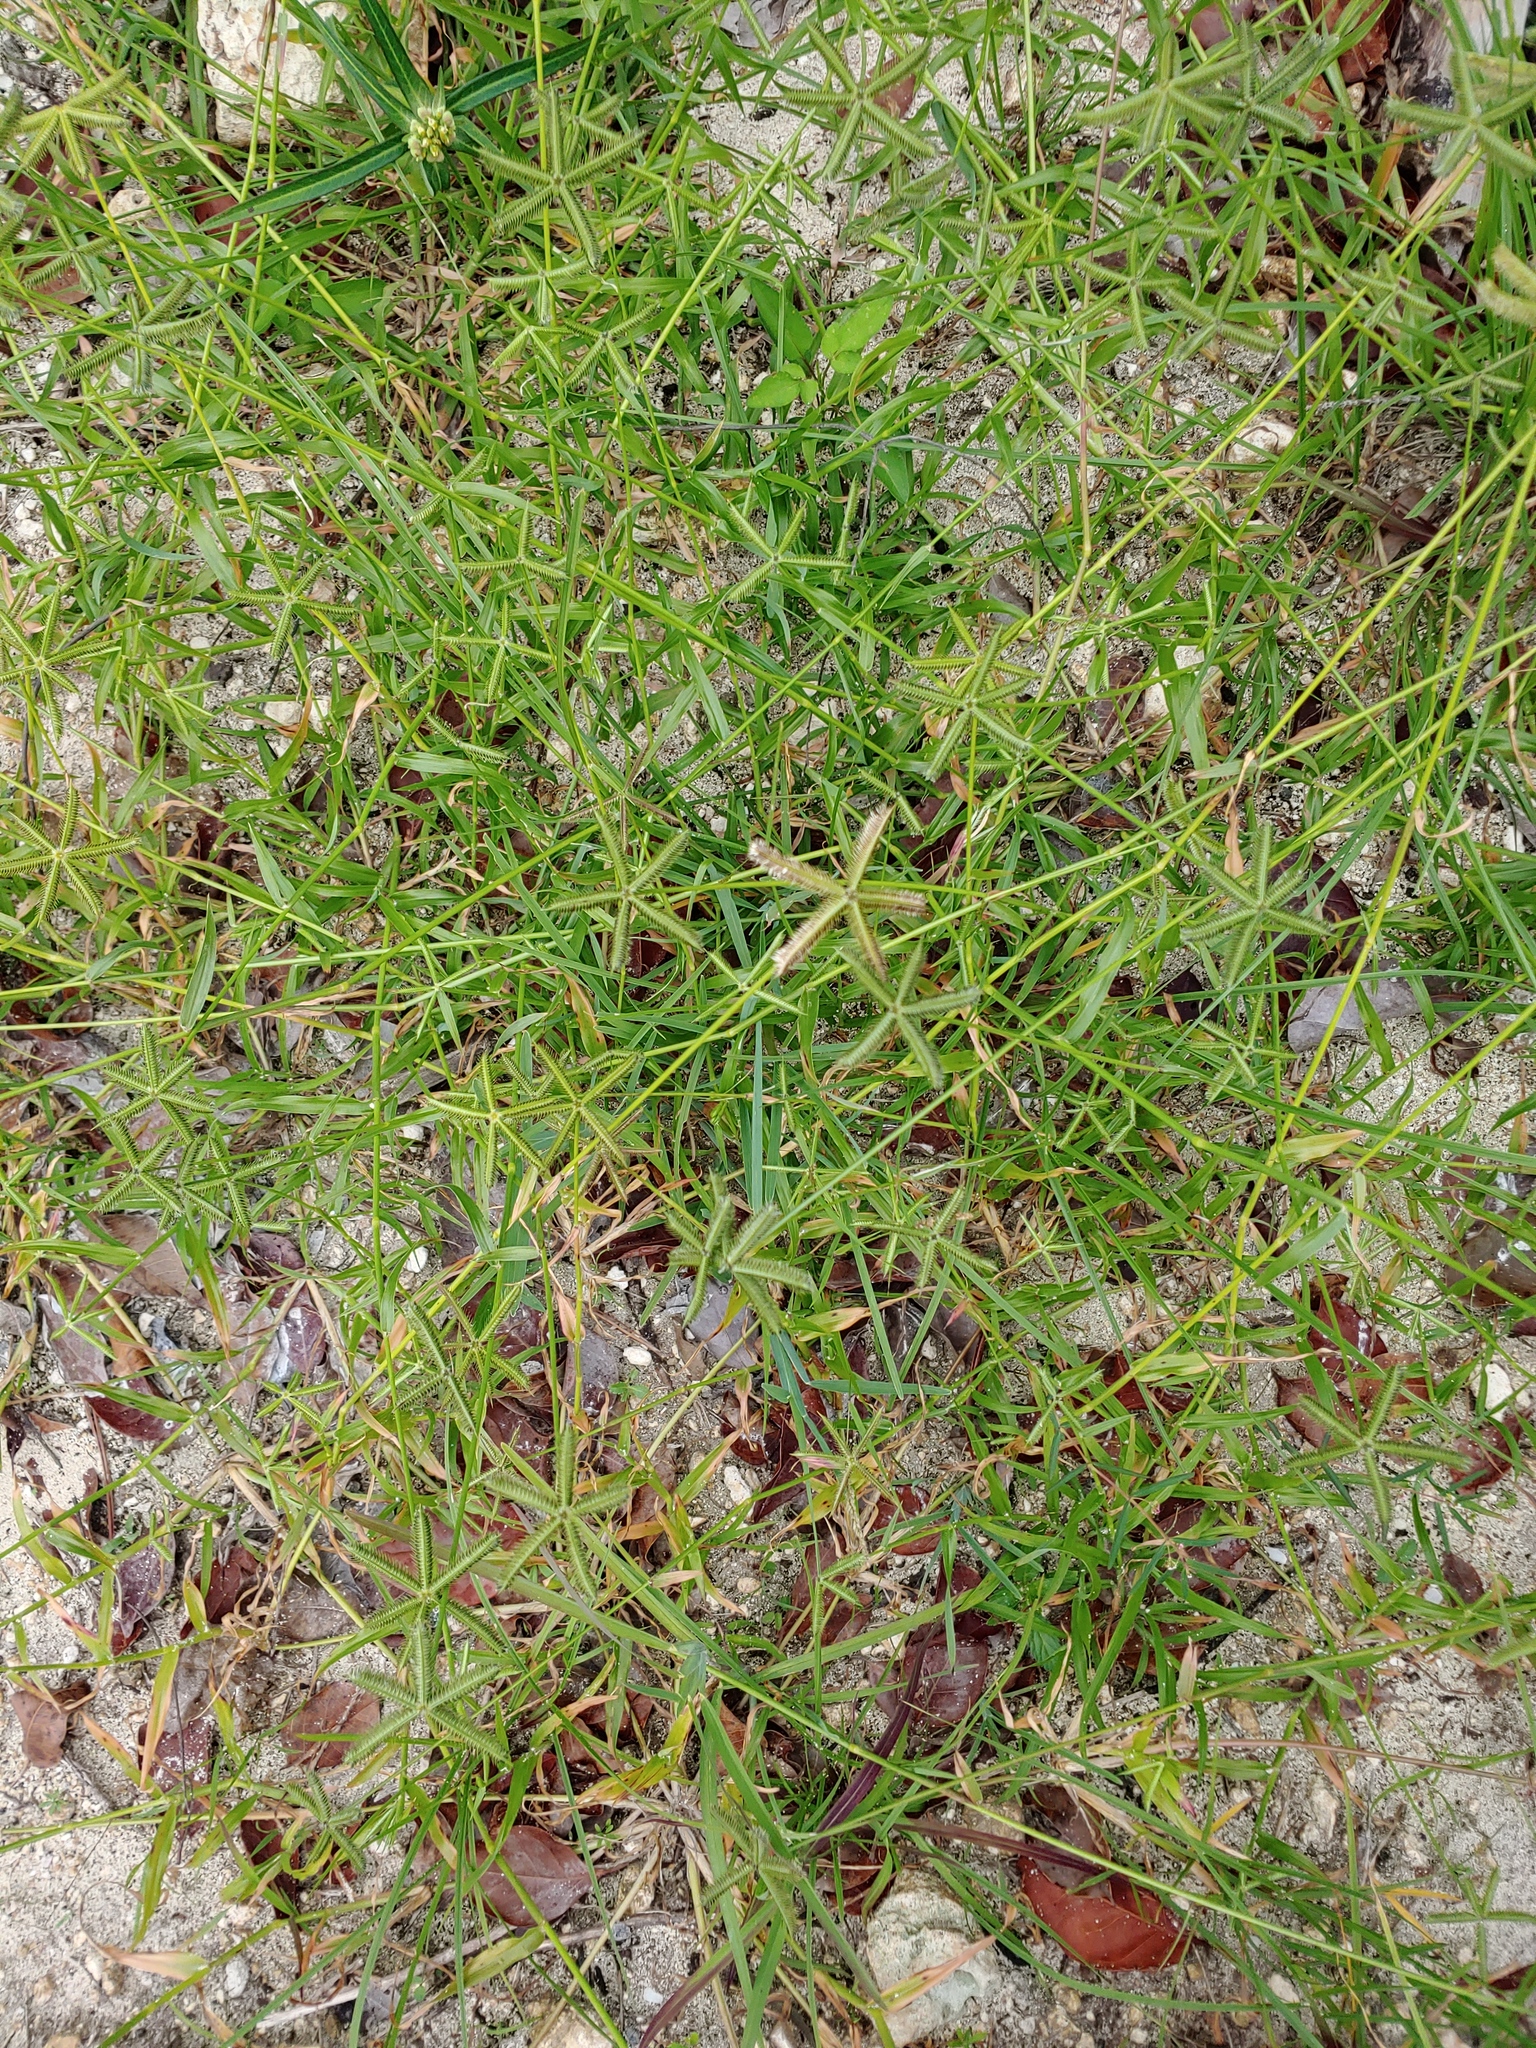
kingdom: Plantae
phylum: Tracheophyta
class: Liliopsida
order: Poales
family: Poaceae
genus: Dactyloctenium
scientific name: Dactyloctenium aegyptium
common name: Egyptian grass
